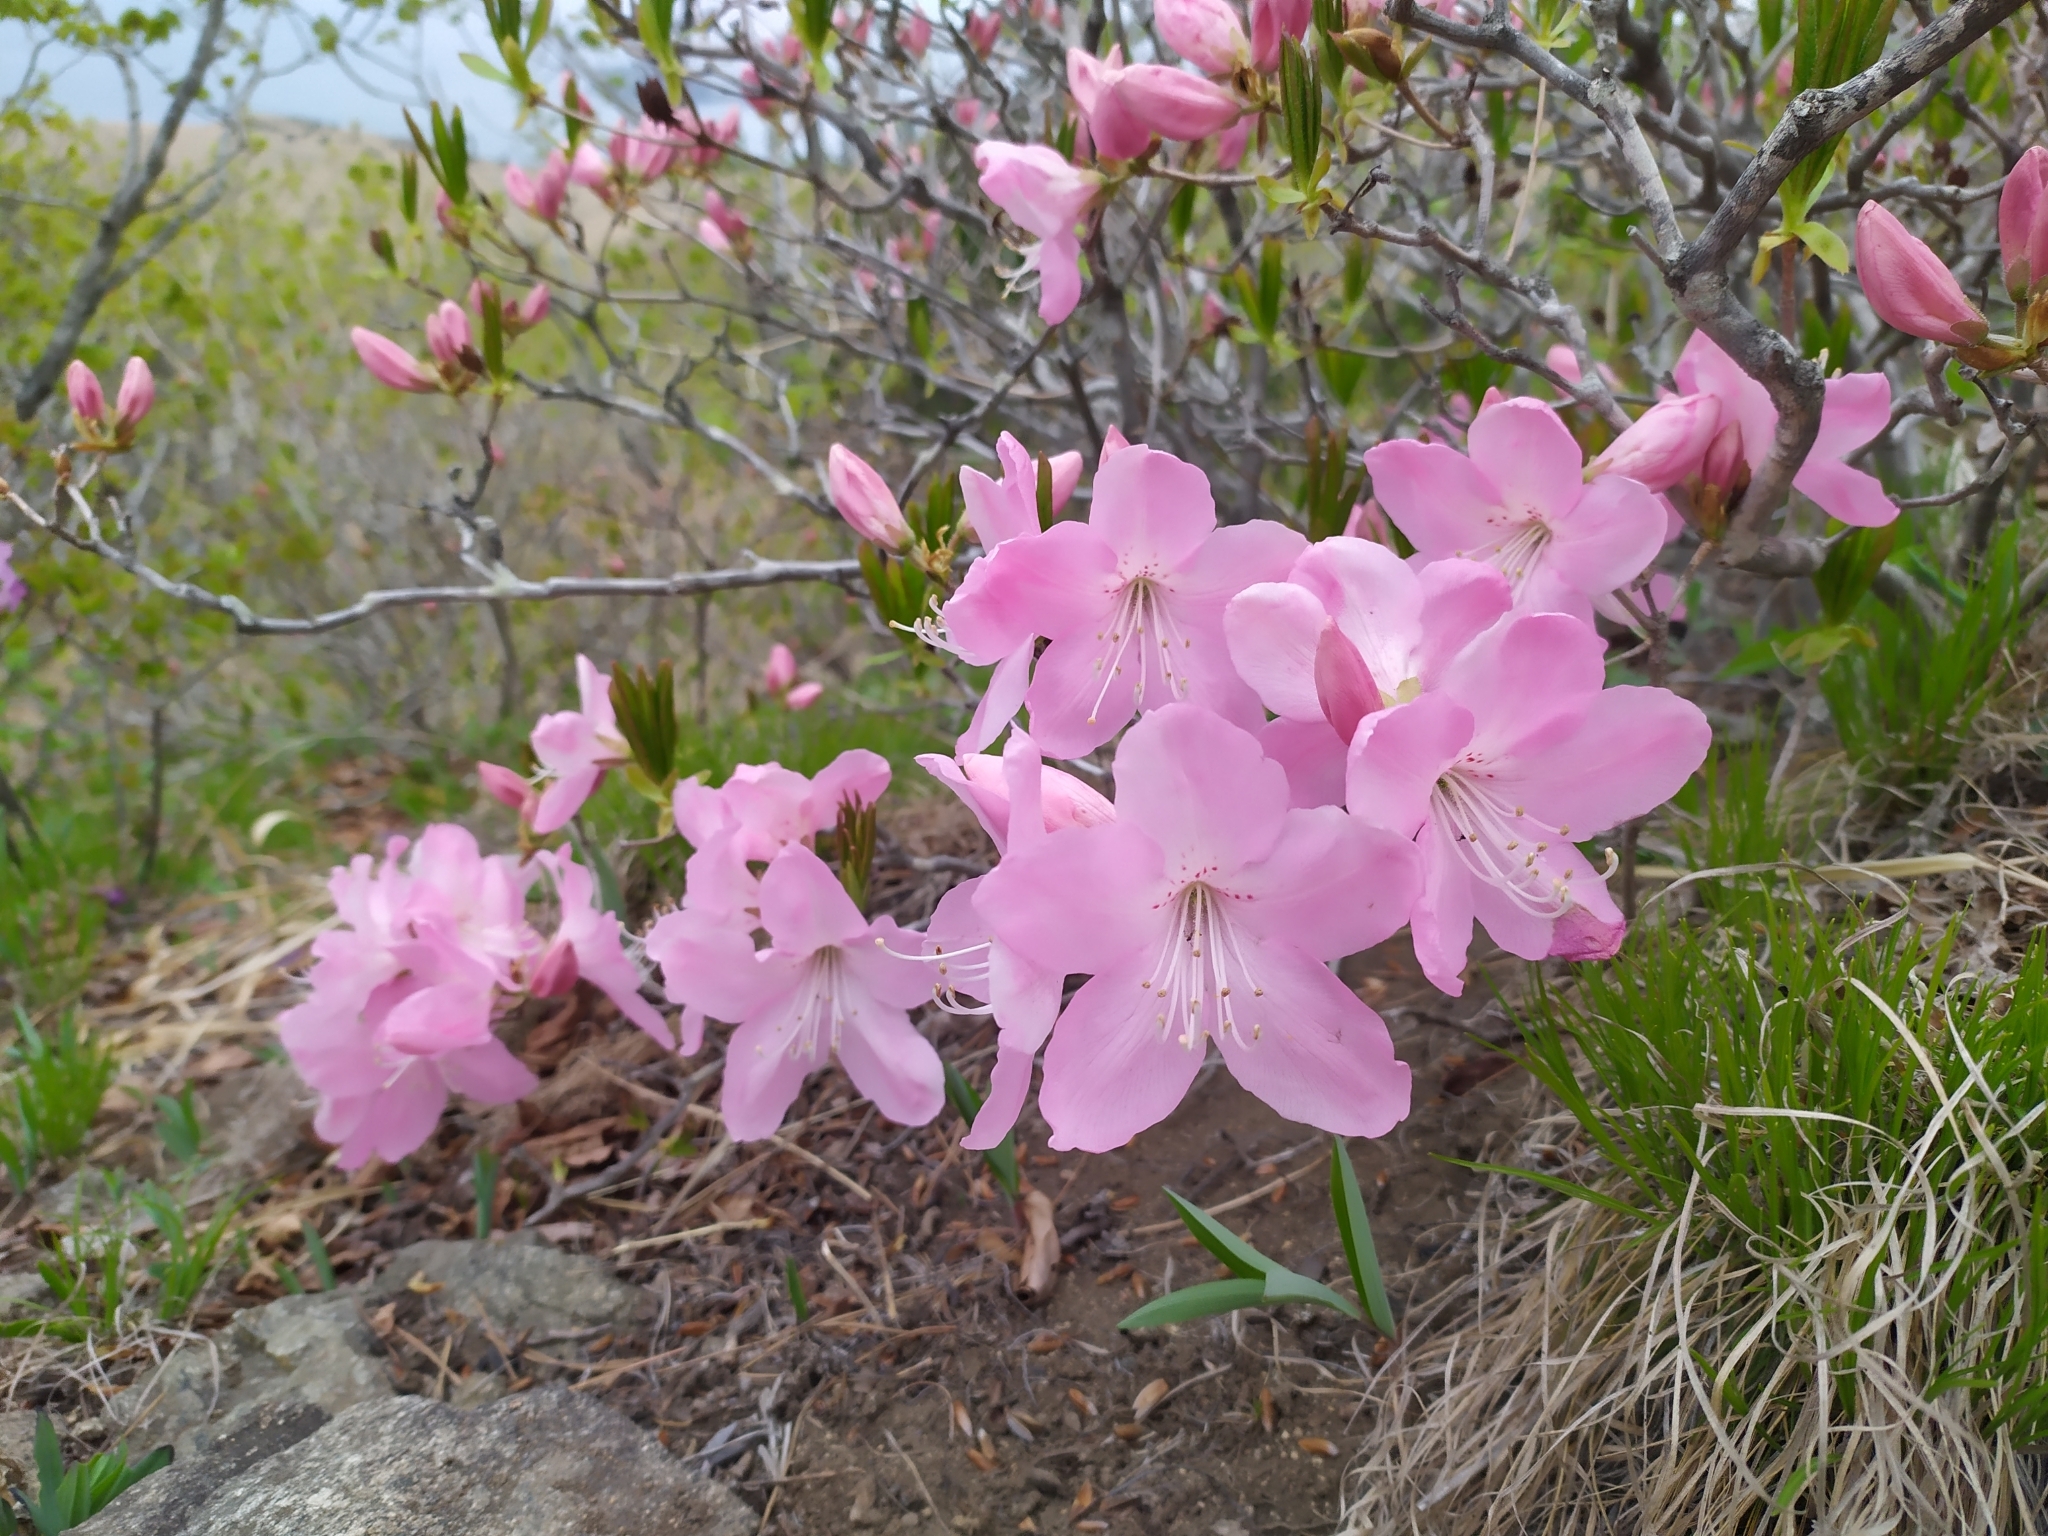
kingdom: Plantae
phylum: Tracheophyta
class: Magnoliopsida
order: Ericales
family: Ericaceae
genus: Rhododendron
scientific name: Rhododendron schlippenbachii
